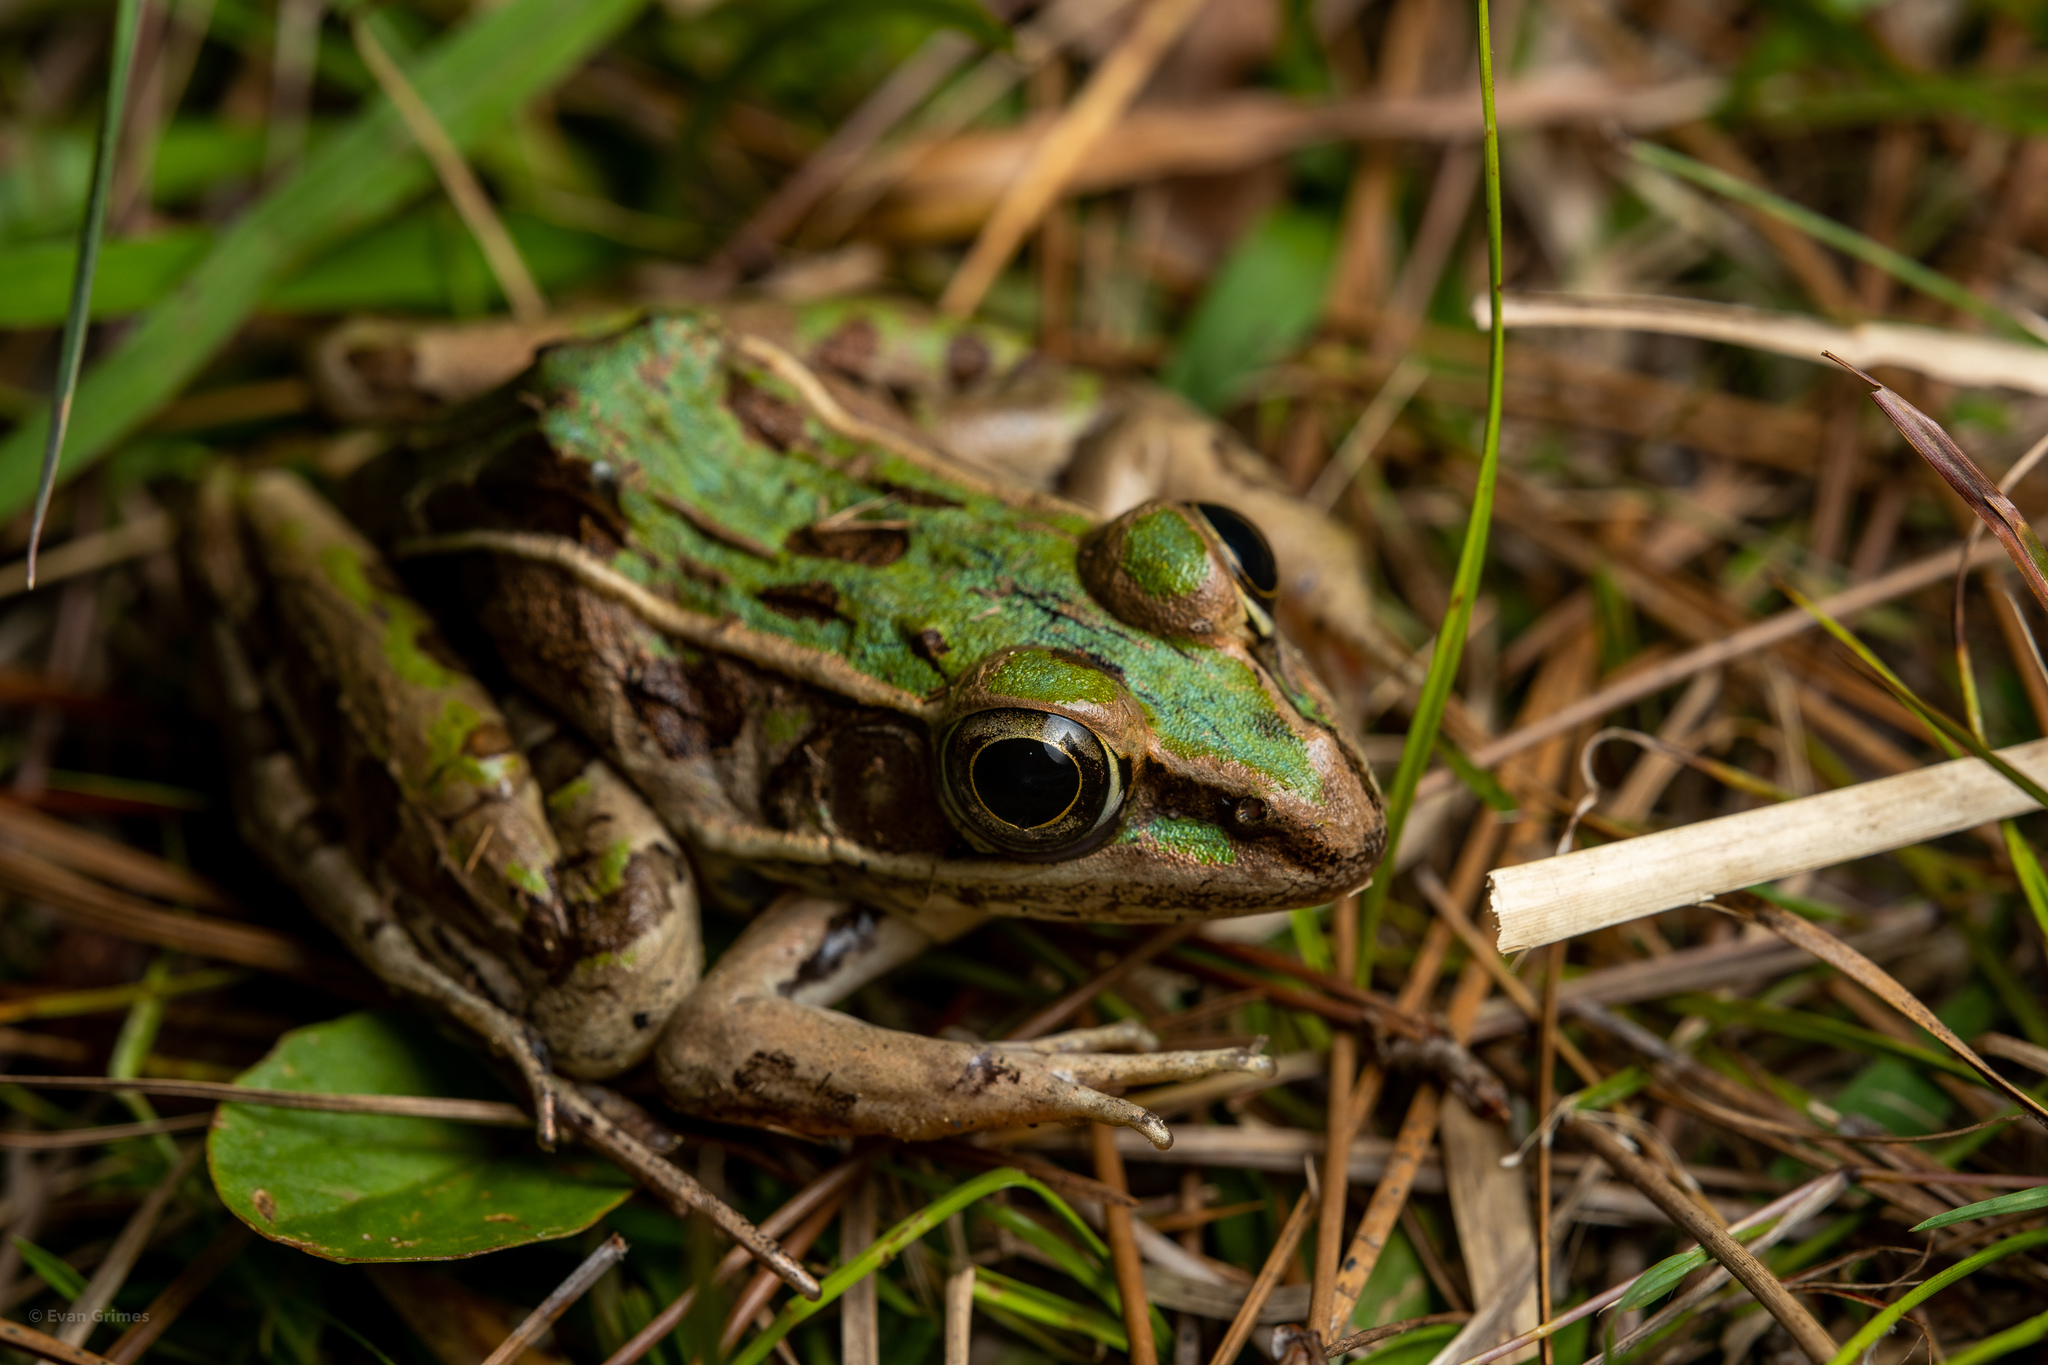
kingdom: Animalia
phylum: Chordata
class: Amphibia
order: Anura
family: Ranidae
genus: Lithobates
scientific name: Lithobates sphenocephalus
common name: Southern leopard frog
